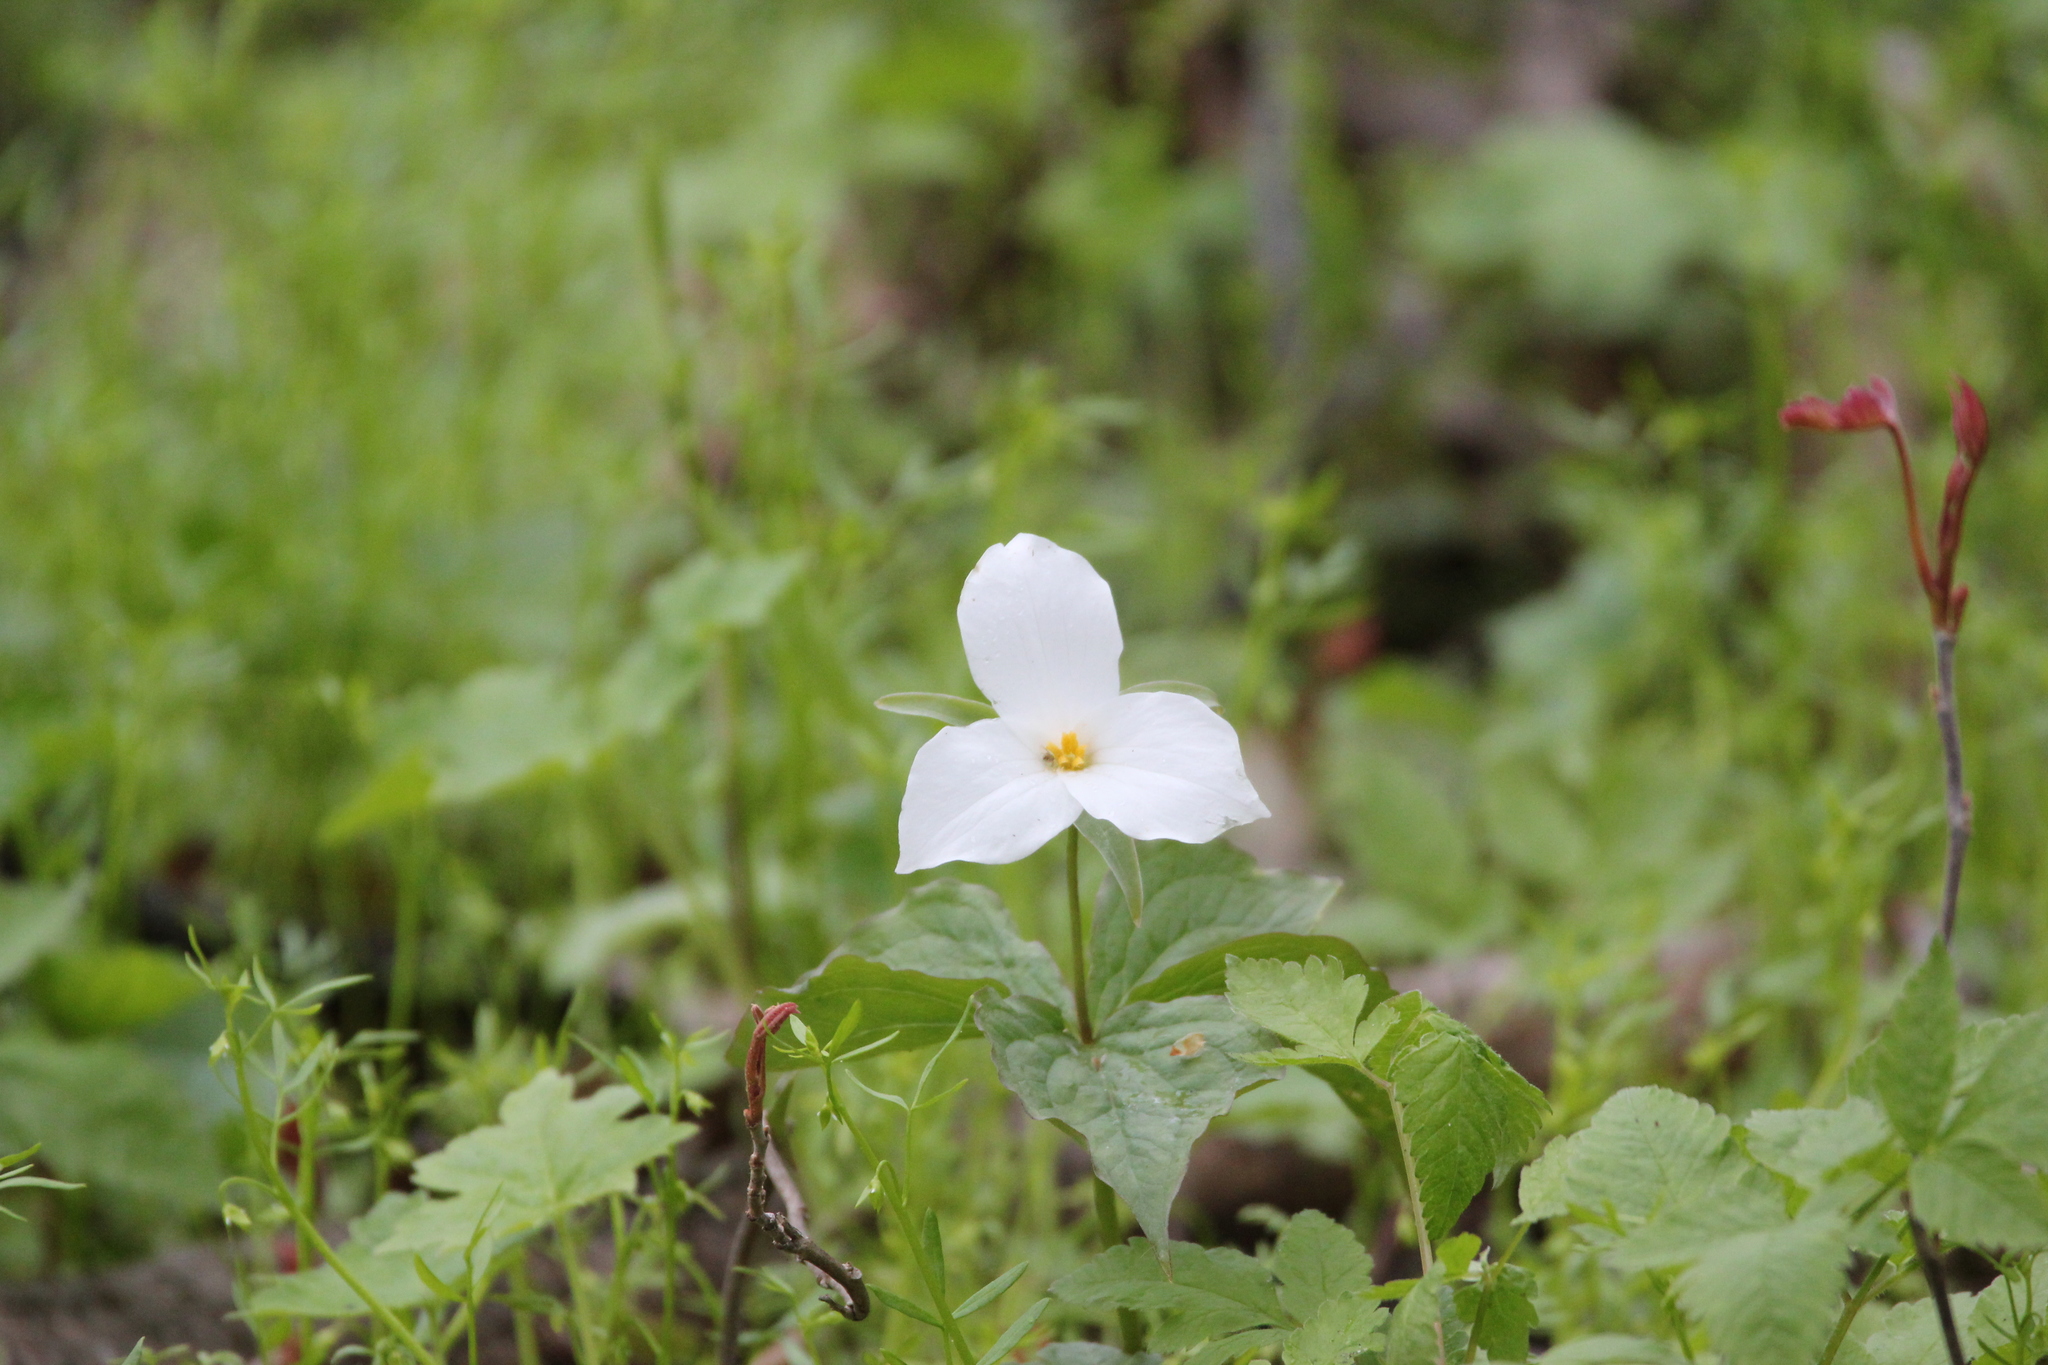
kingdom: Plantae
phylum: Tracheophyta
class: Liliopsida
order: Liliales
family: Melanthiaceae
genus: Trillium
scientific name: Trillium grandiflorum
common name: Great white trillium
